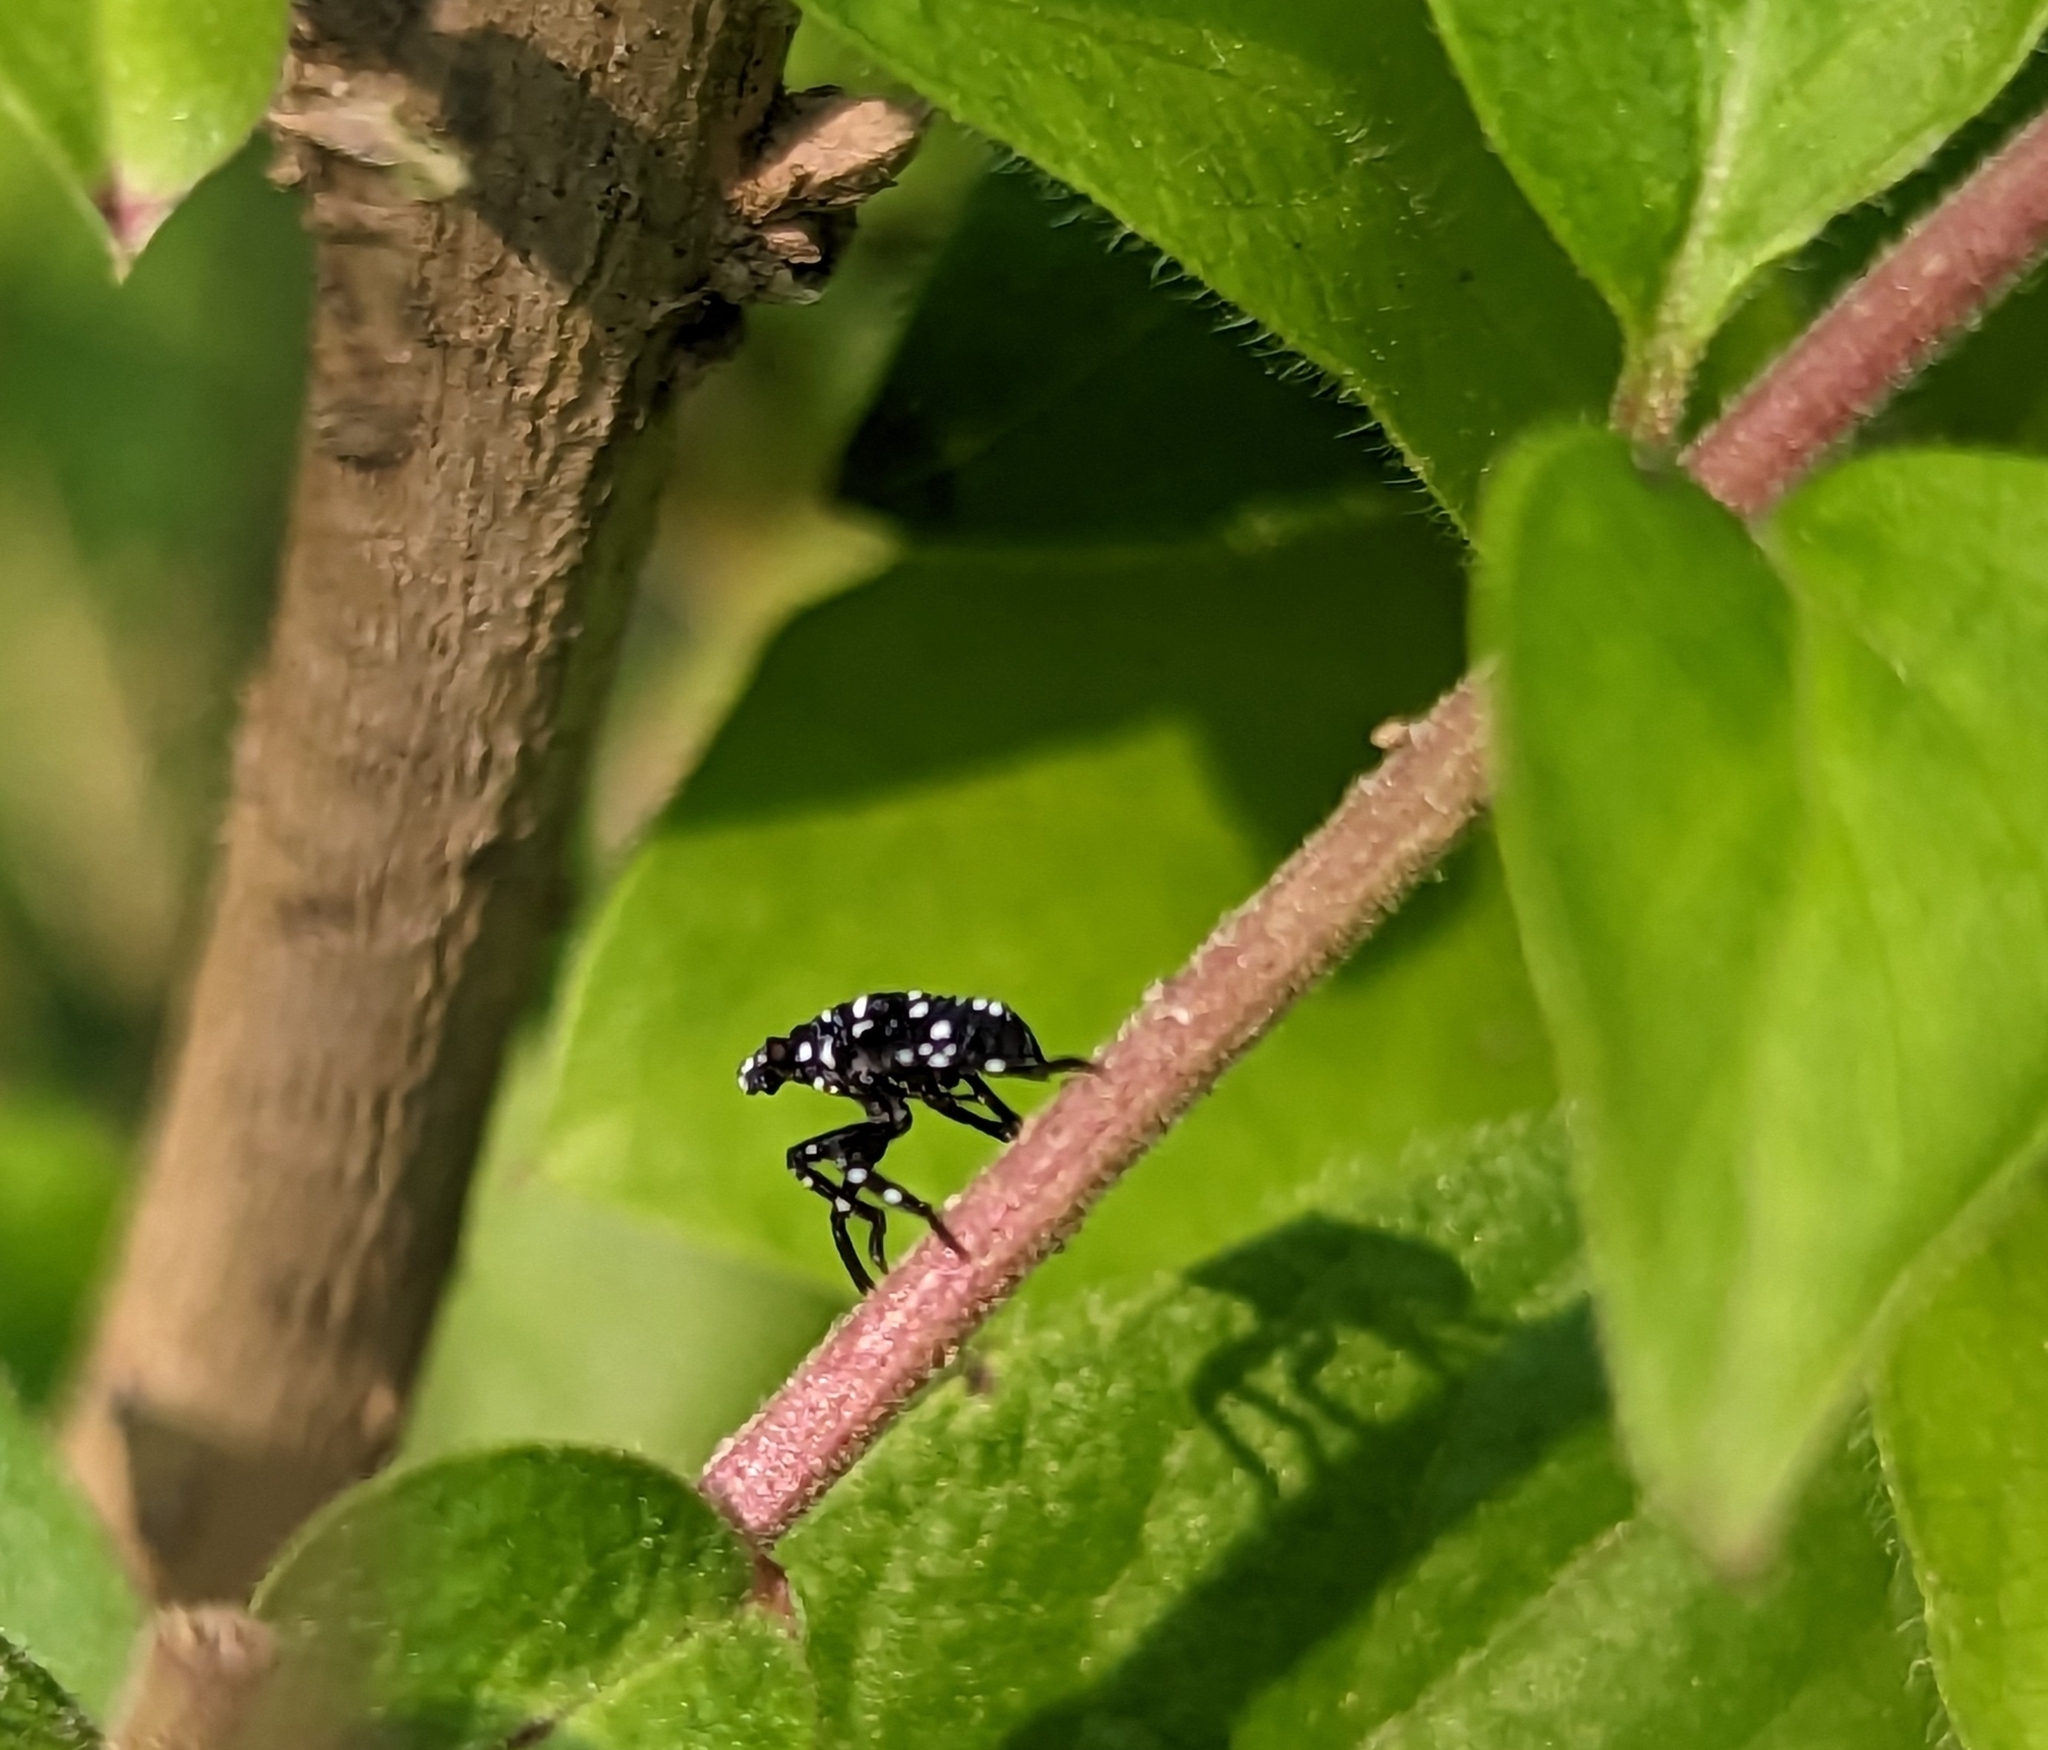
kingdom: Animalia
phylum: Arthropoda
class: Insecta
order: Hemiptera
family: Fulgoridae
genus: Lycorma
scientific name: Lycorma delicatula
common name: Spotted lanternfly
